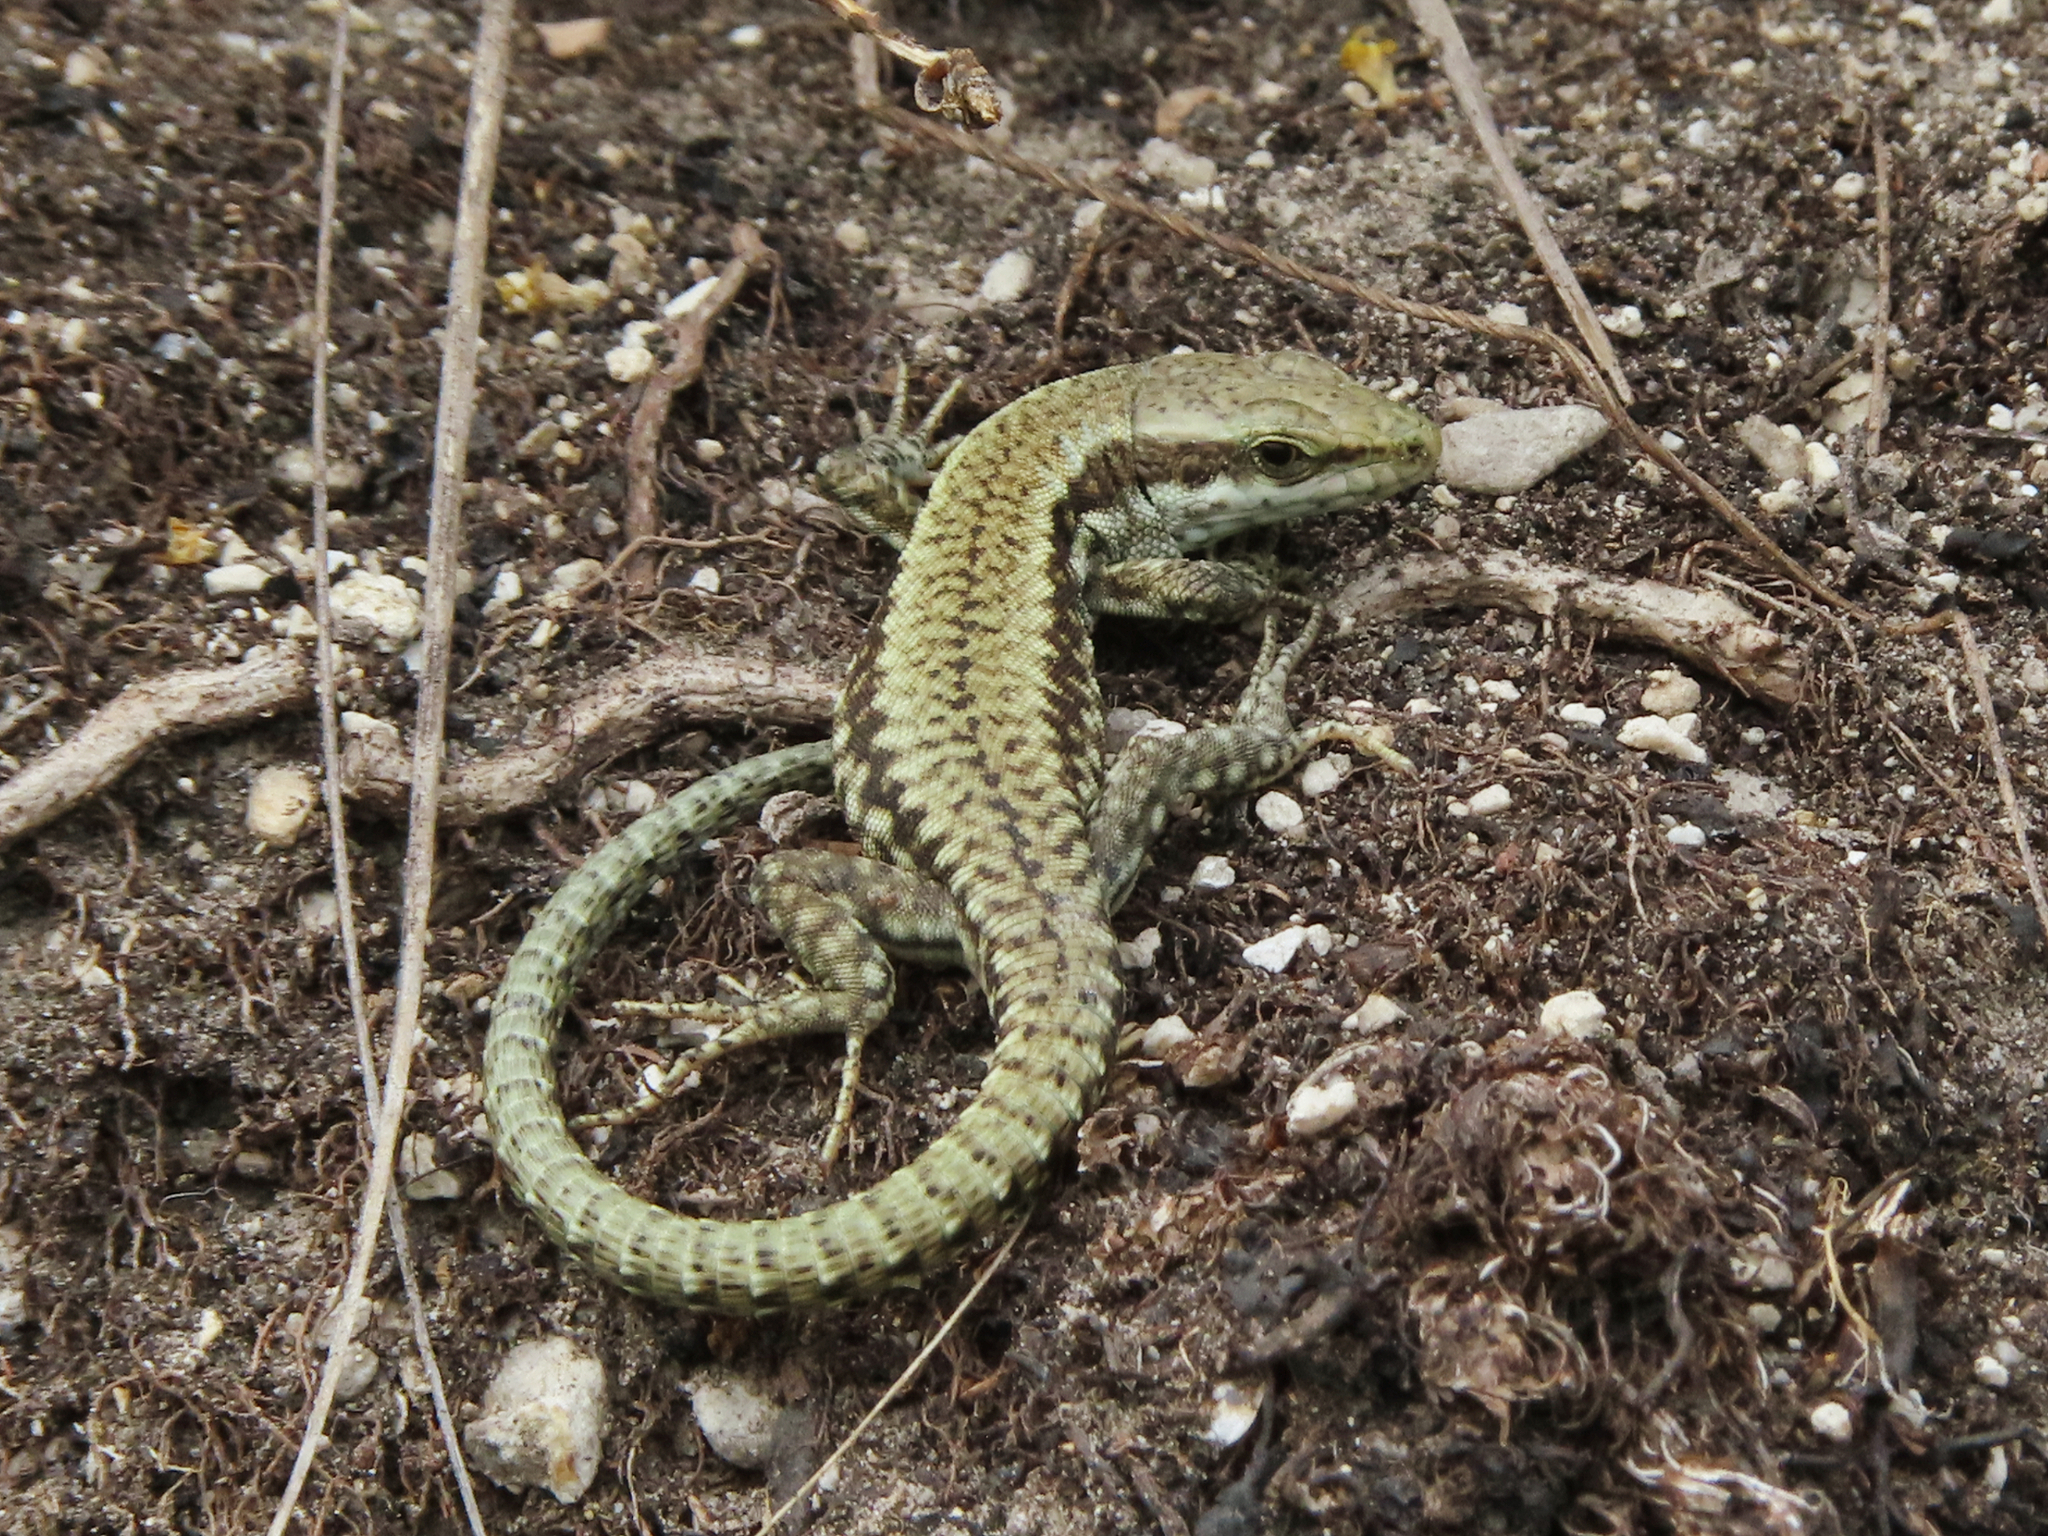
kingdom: Animalia
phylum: Chordata
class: Squamata
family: Lacertidae
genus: Podarcis
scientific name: Podarcis muralis
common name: Common wall lizard
